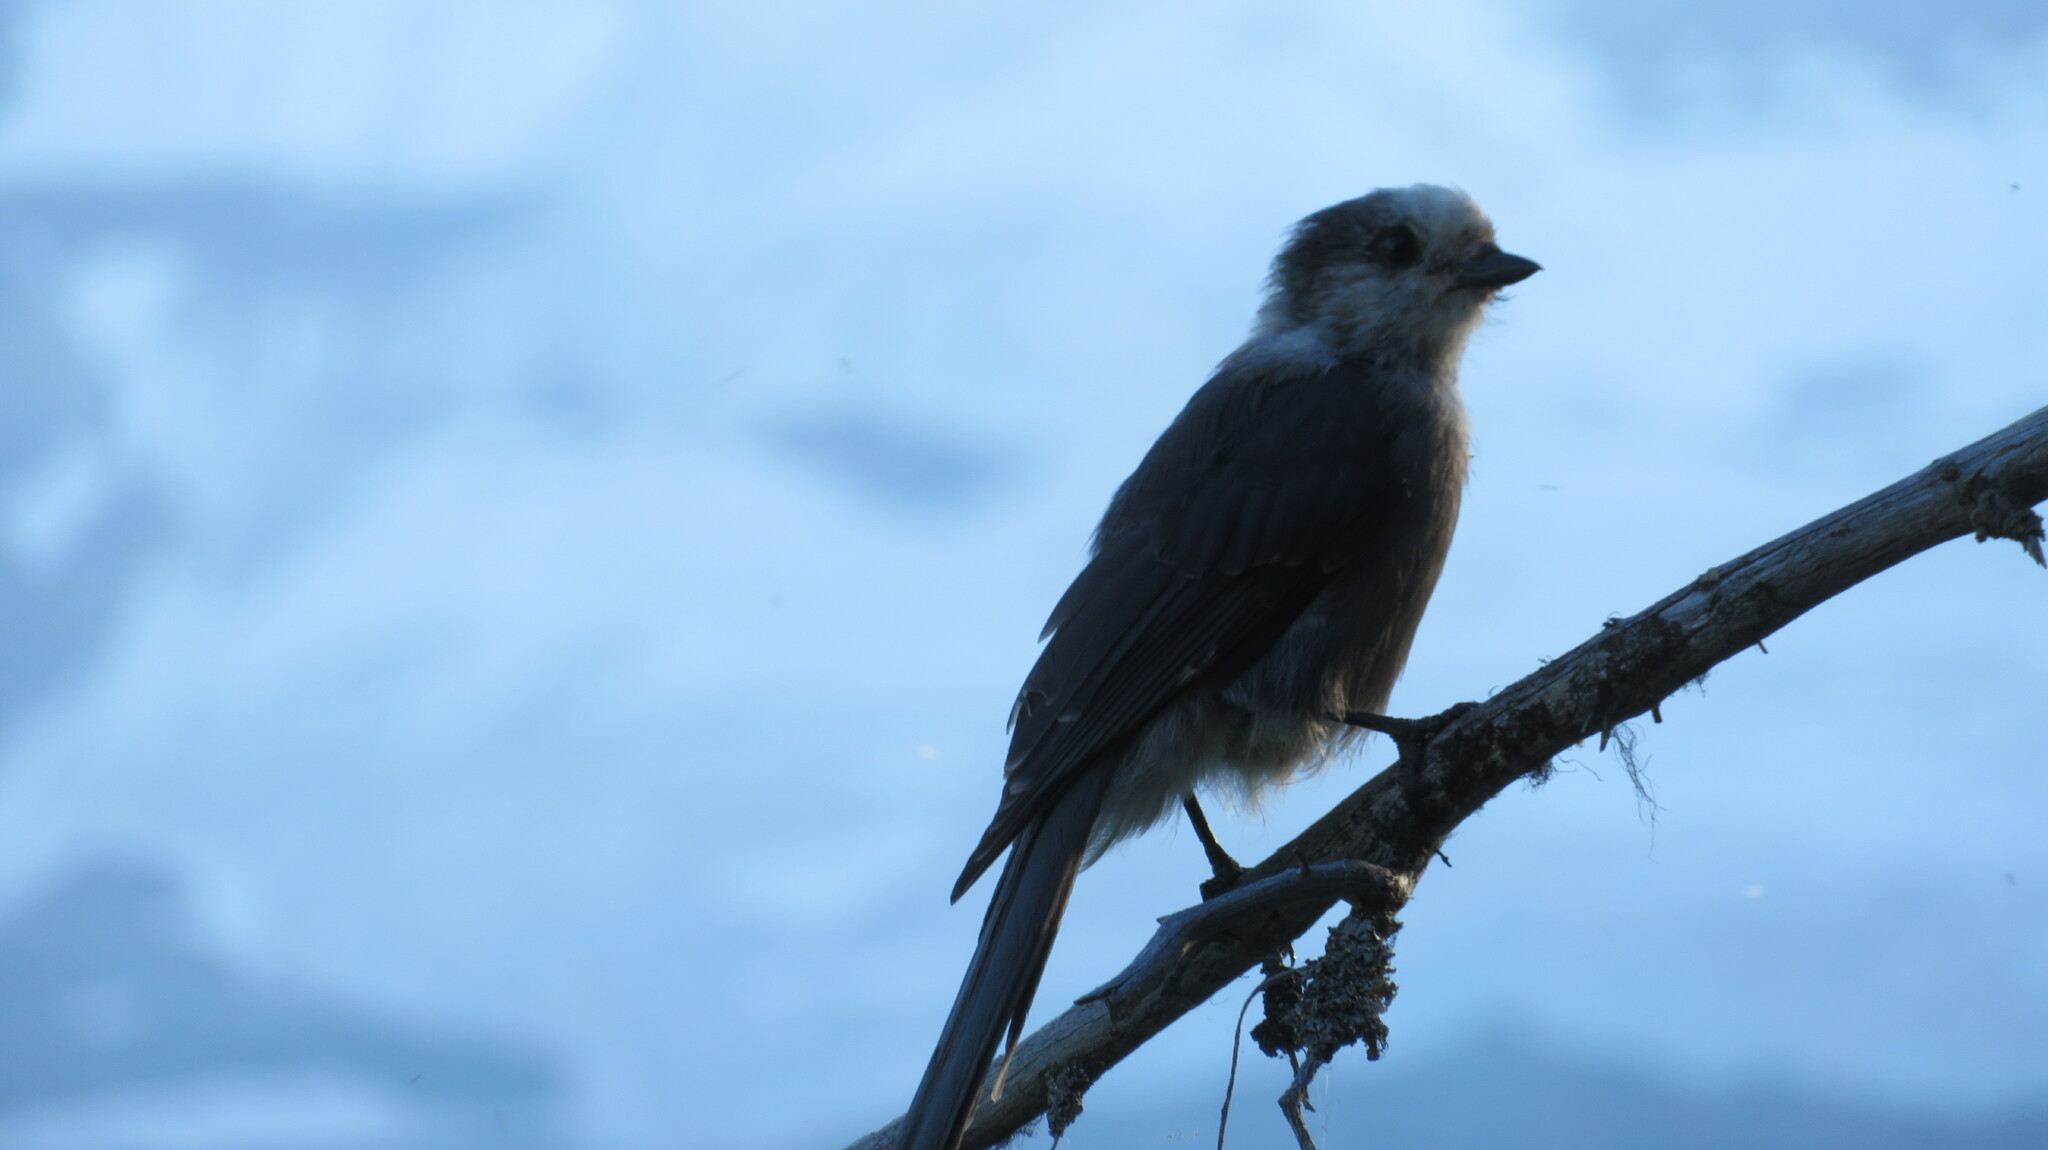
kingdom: Animalia
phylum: Chordata
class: Aves
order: Passeriformes
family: Corvidae
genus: Perisoreus
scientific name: Perisoreus canadensis
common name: Gray jay
